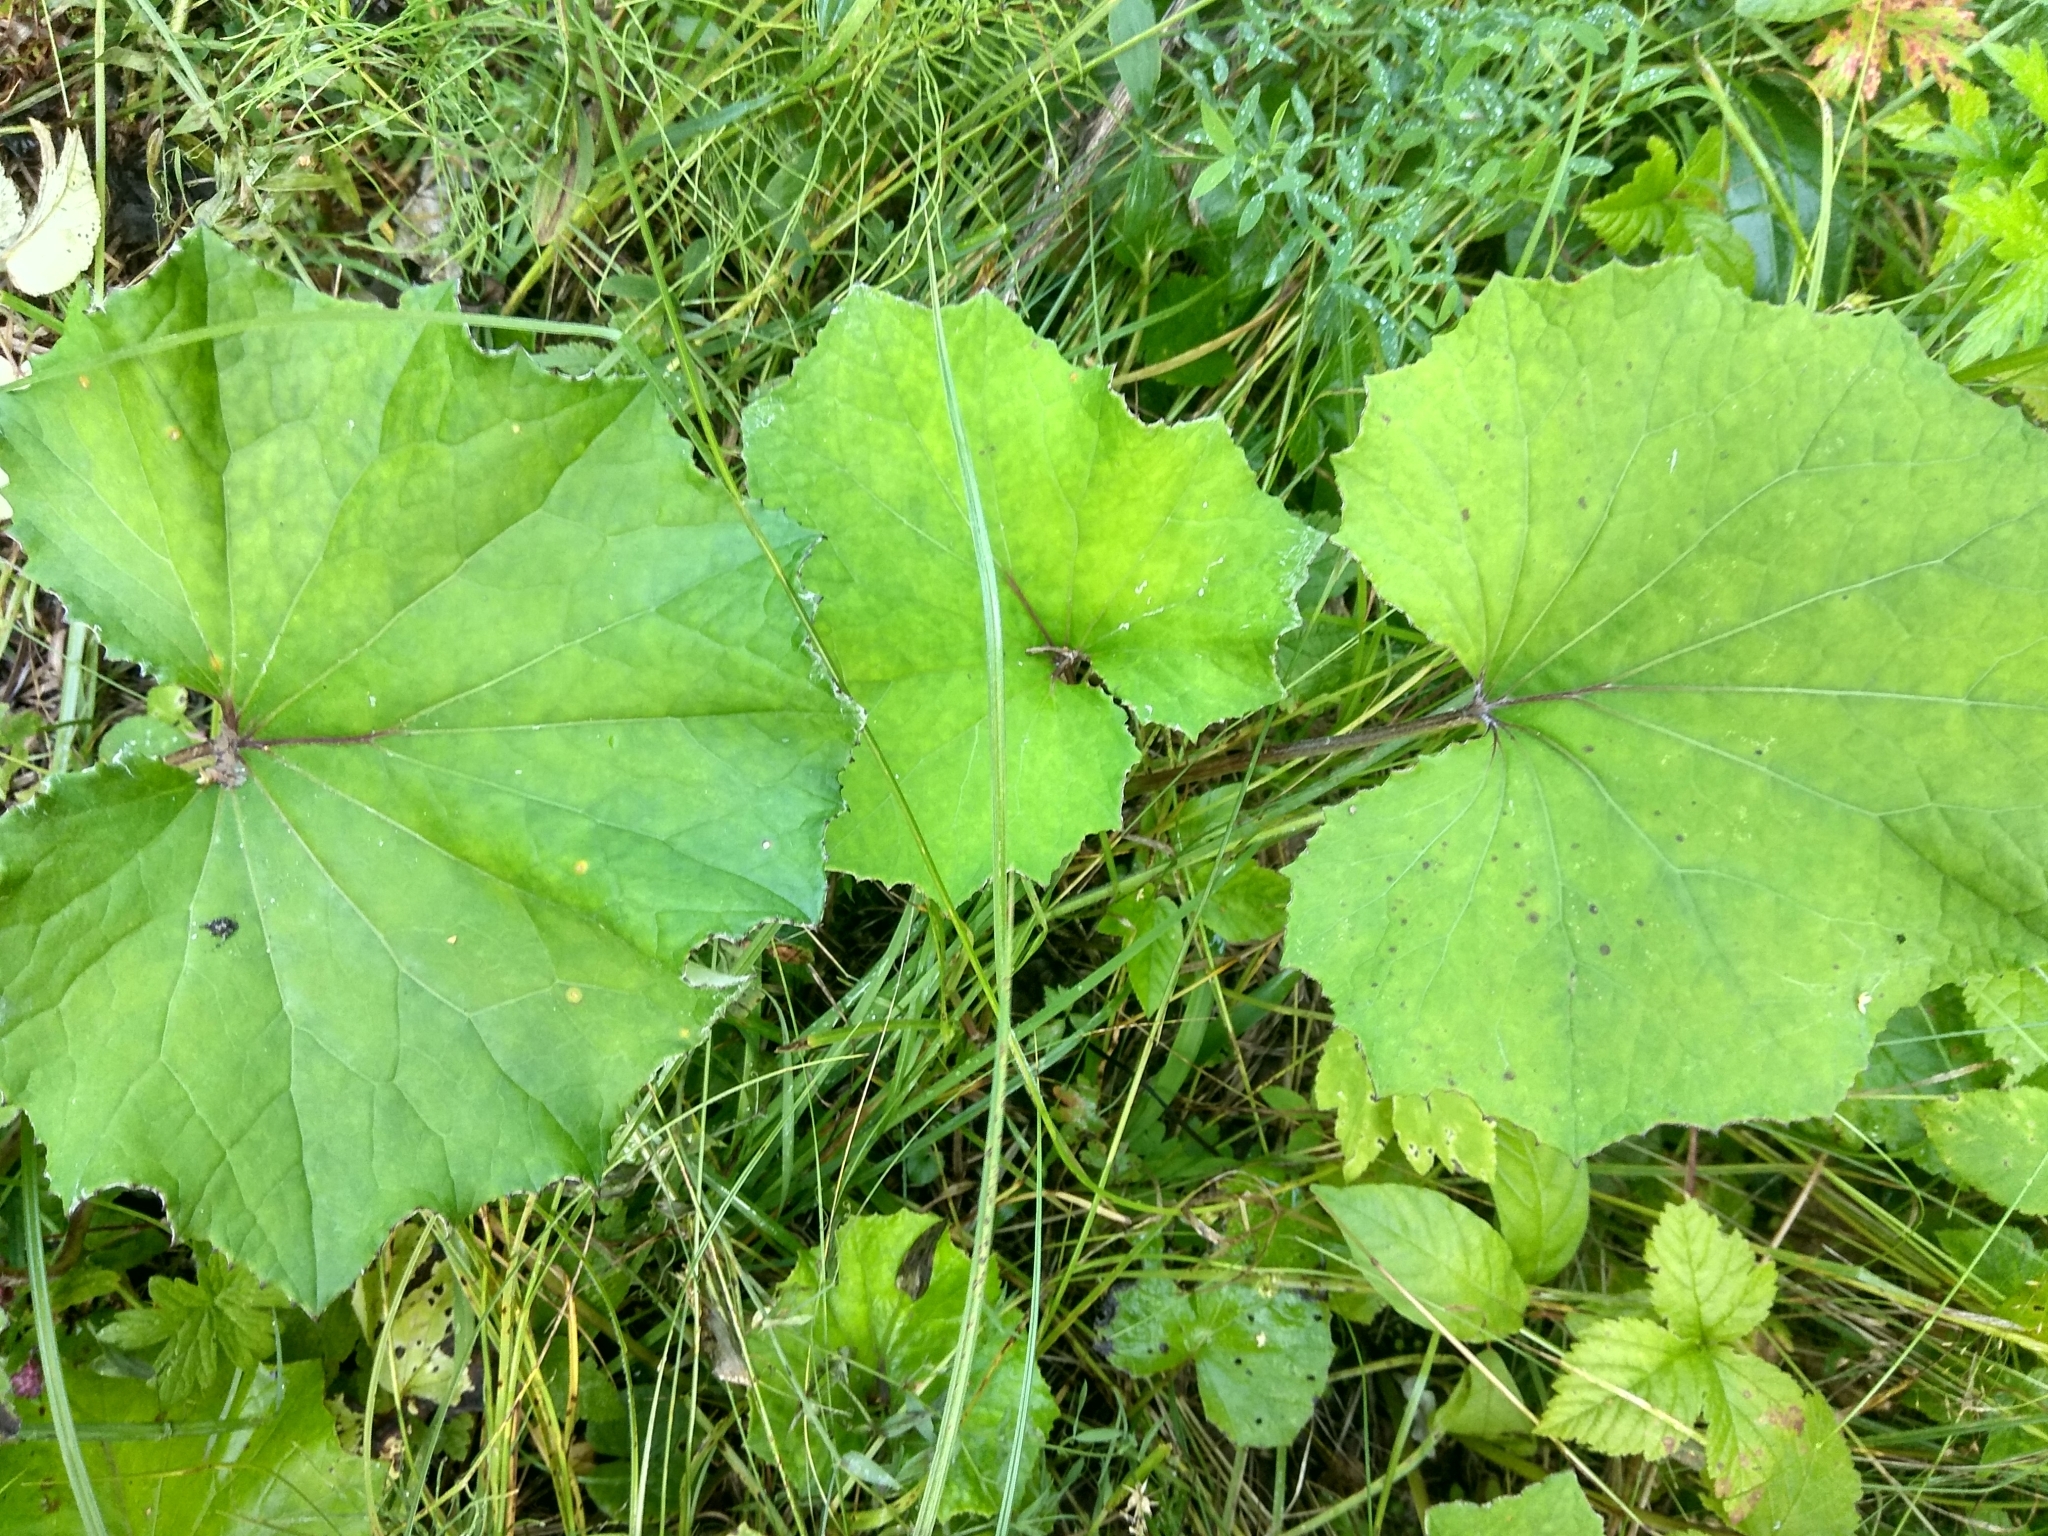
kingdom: Plantae
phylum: Tracheophyta
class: Magnoliopsida
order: Asterales
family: Asteraceae
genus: Tussilago
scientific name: Tussilago farfara
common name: Coltsfoot
